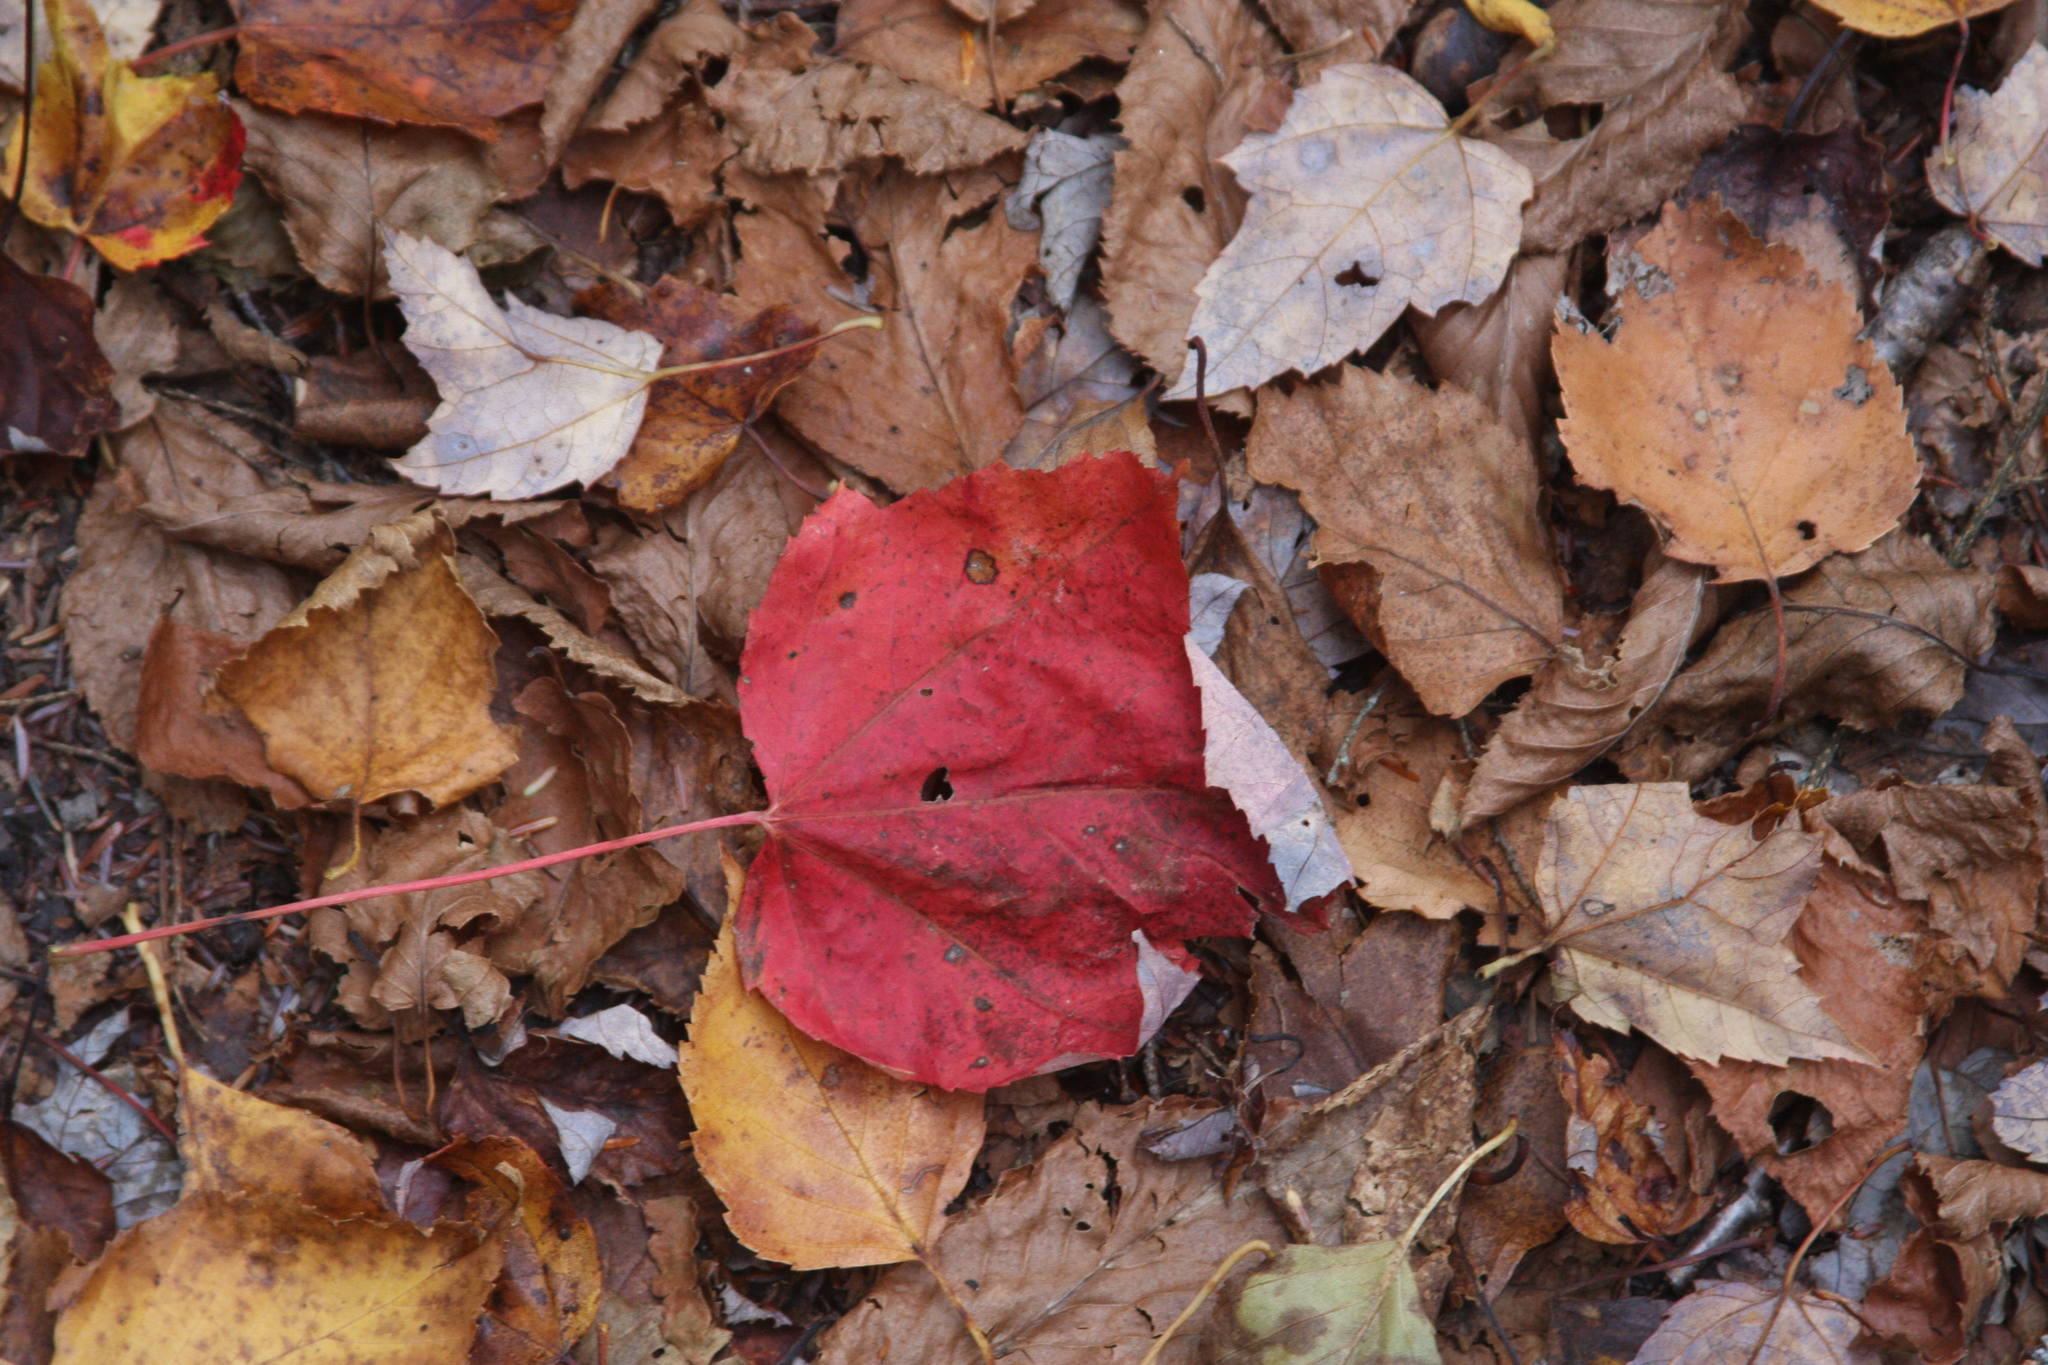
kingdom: Plantae
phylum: Tracheophyta
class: Magnoliopsida
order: Sapindales
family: Sapindaceae
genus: Acer
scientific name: Acer rubrum
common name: Red maple
